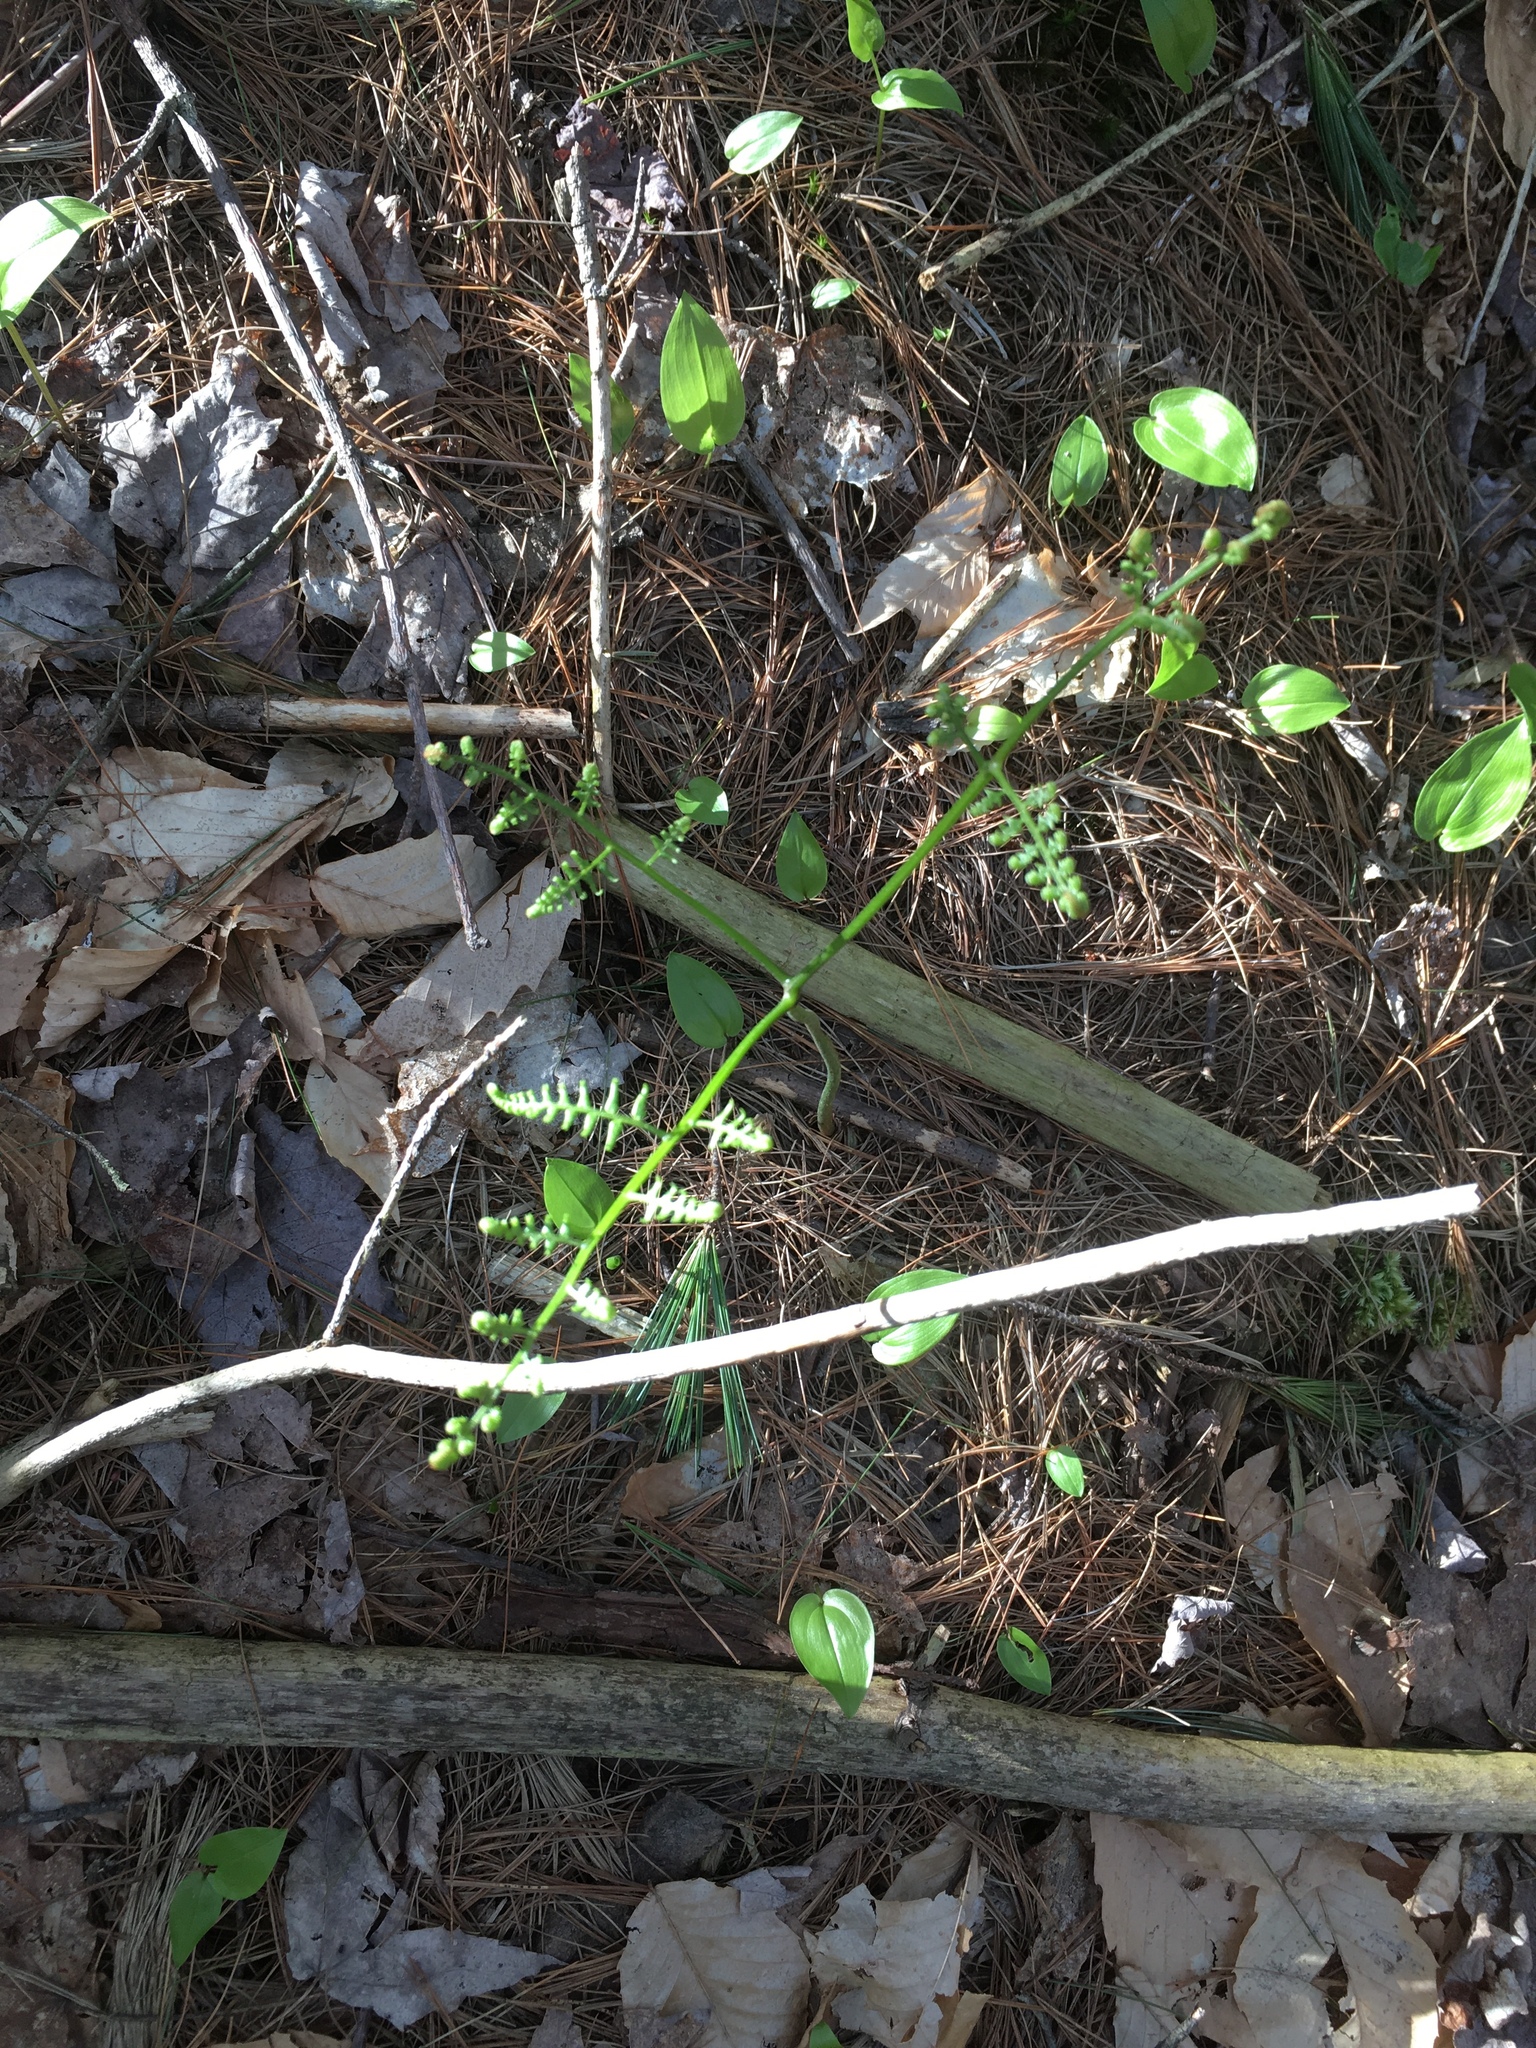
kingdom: Plantae
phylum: Tracheophyta
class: Polypodiopsida
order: Polypodiales
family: Dennstaedtiaceae
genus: Pteridium
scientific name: Pteridium aquilinum
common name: Bracken
